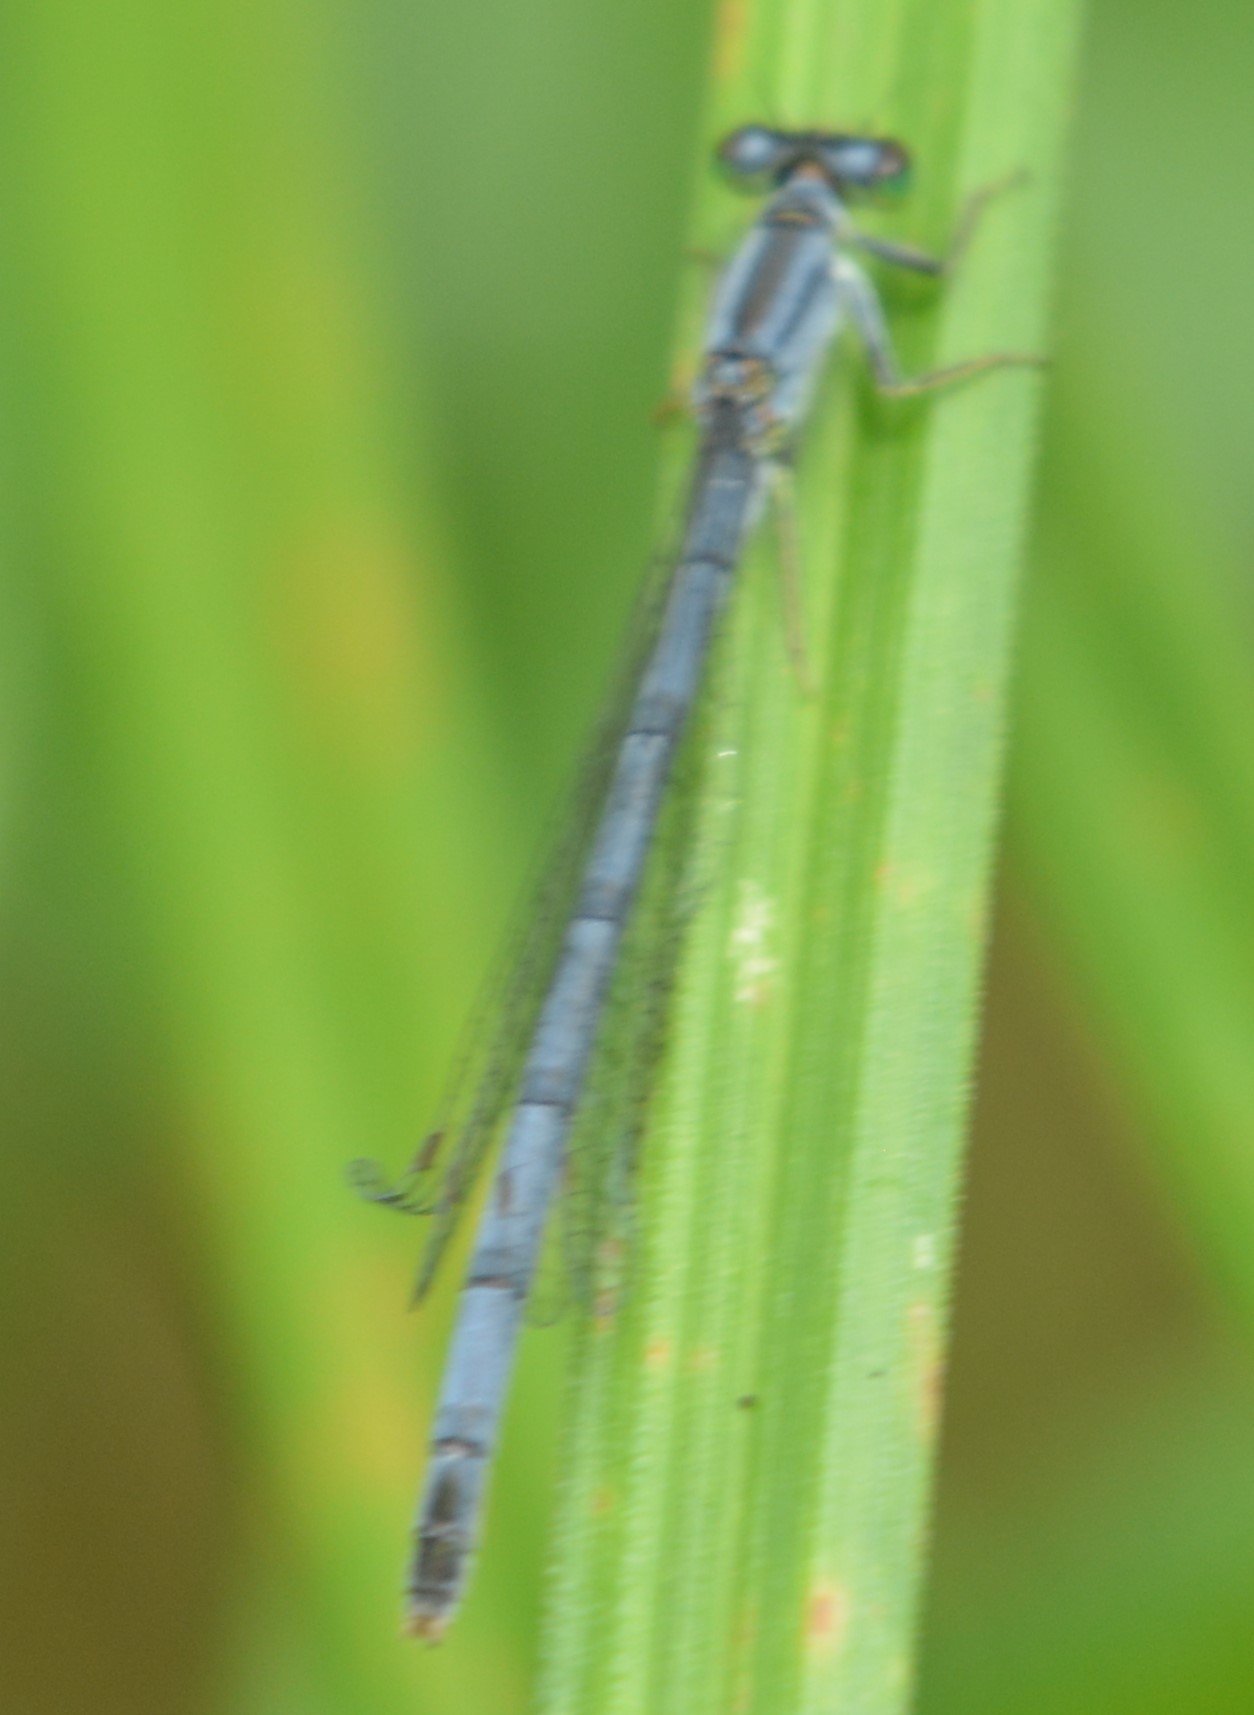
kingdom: Animalia
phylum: Arthropoda
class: Insecta
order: Odonata
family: Coenagrionidae
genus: Ischnura
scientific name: Ischnura verticalis
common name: Eastern forktail
